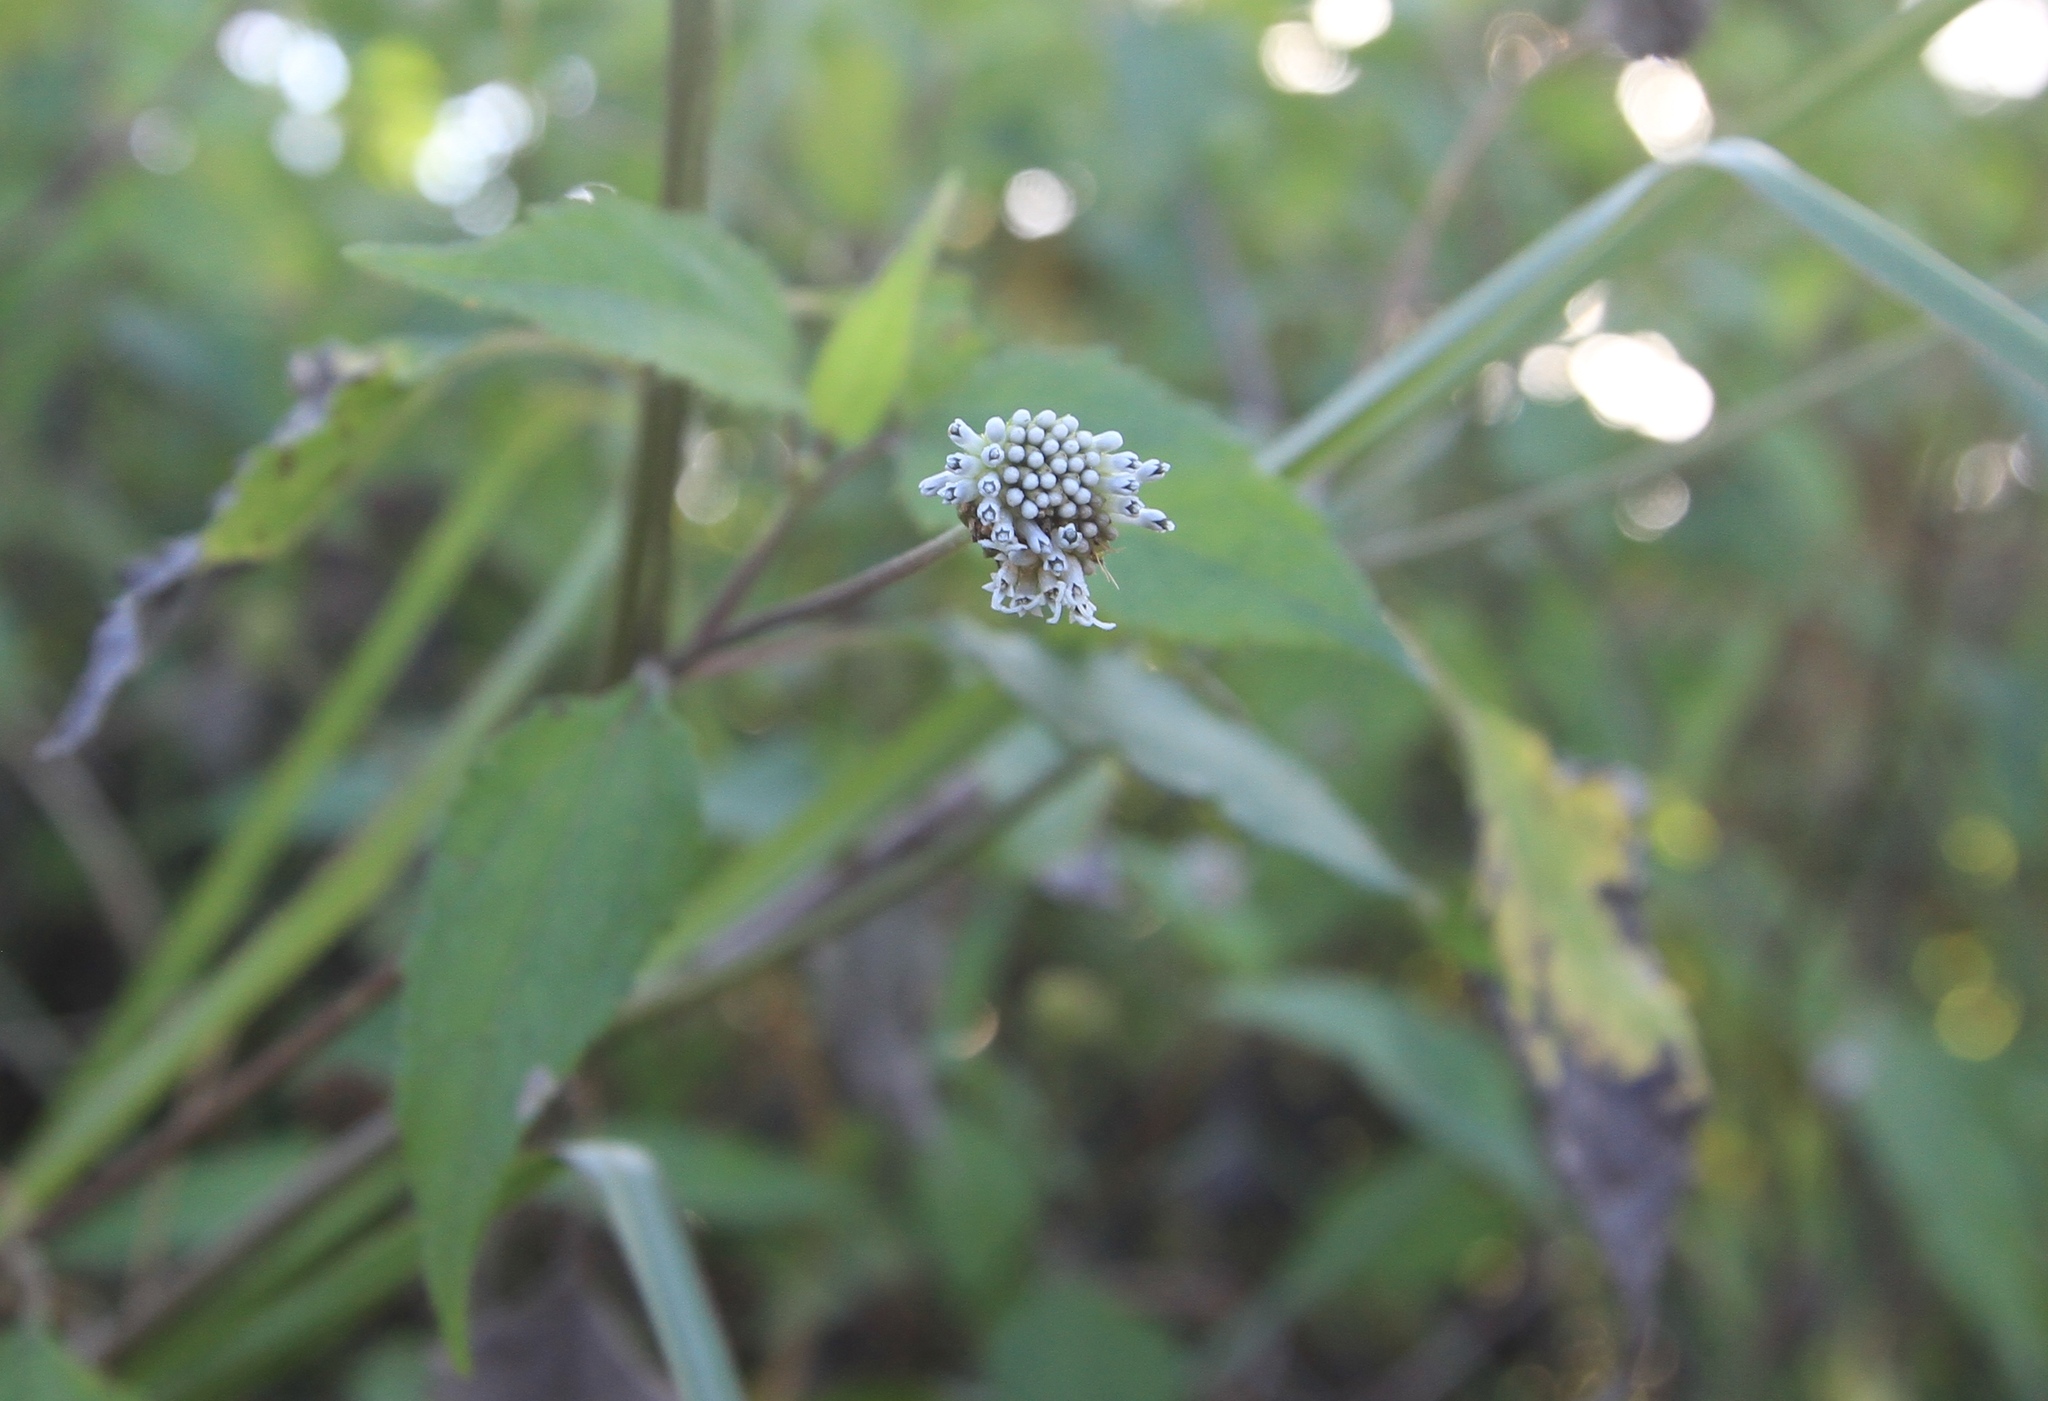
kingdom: Plantae
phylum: Tracheophyta
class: Magnoliopsida
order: Asterales
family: Asteraceae
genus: Melanthera
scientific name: Melanthera nivea
